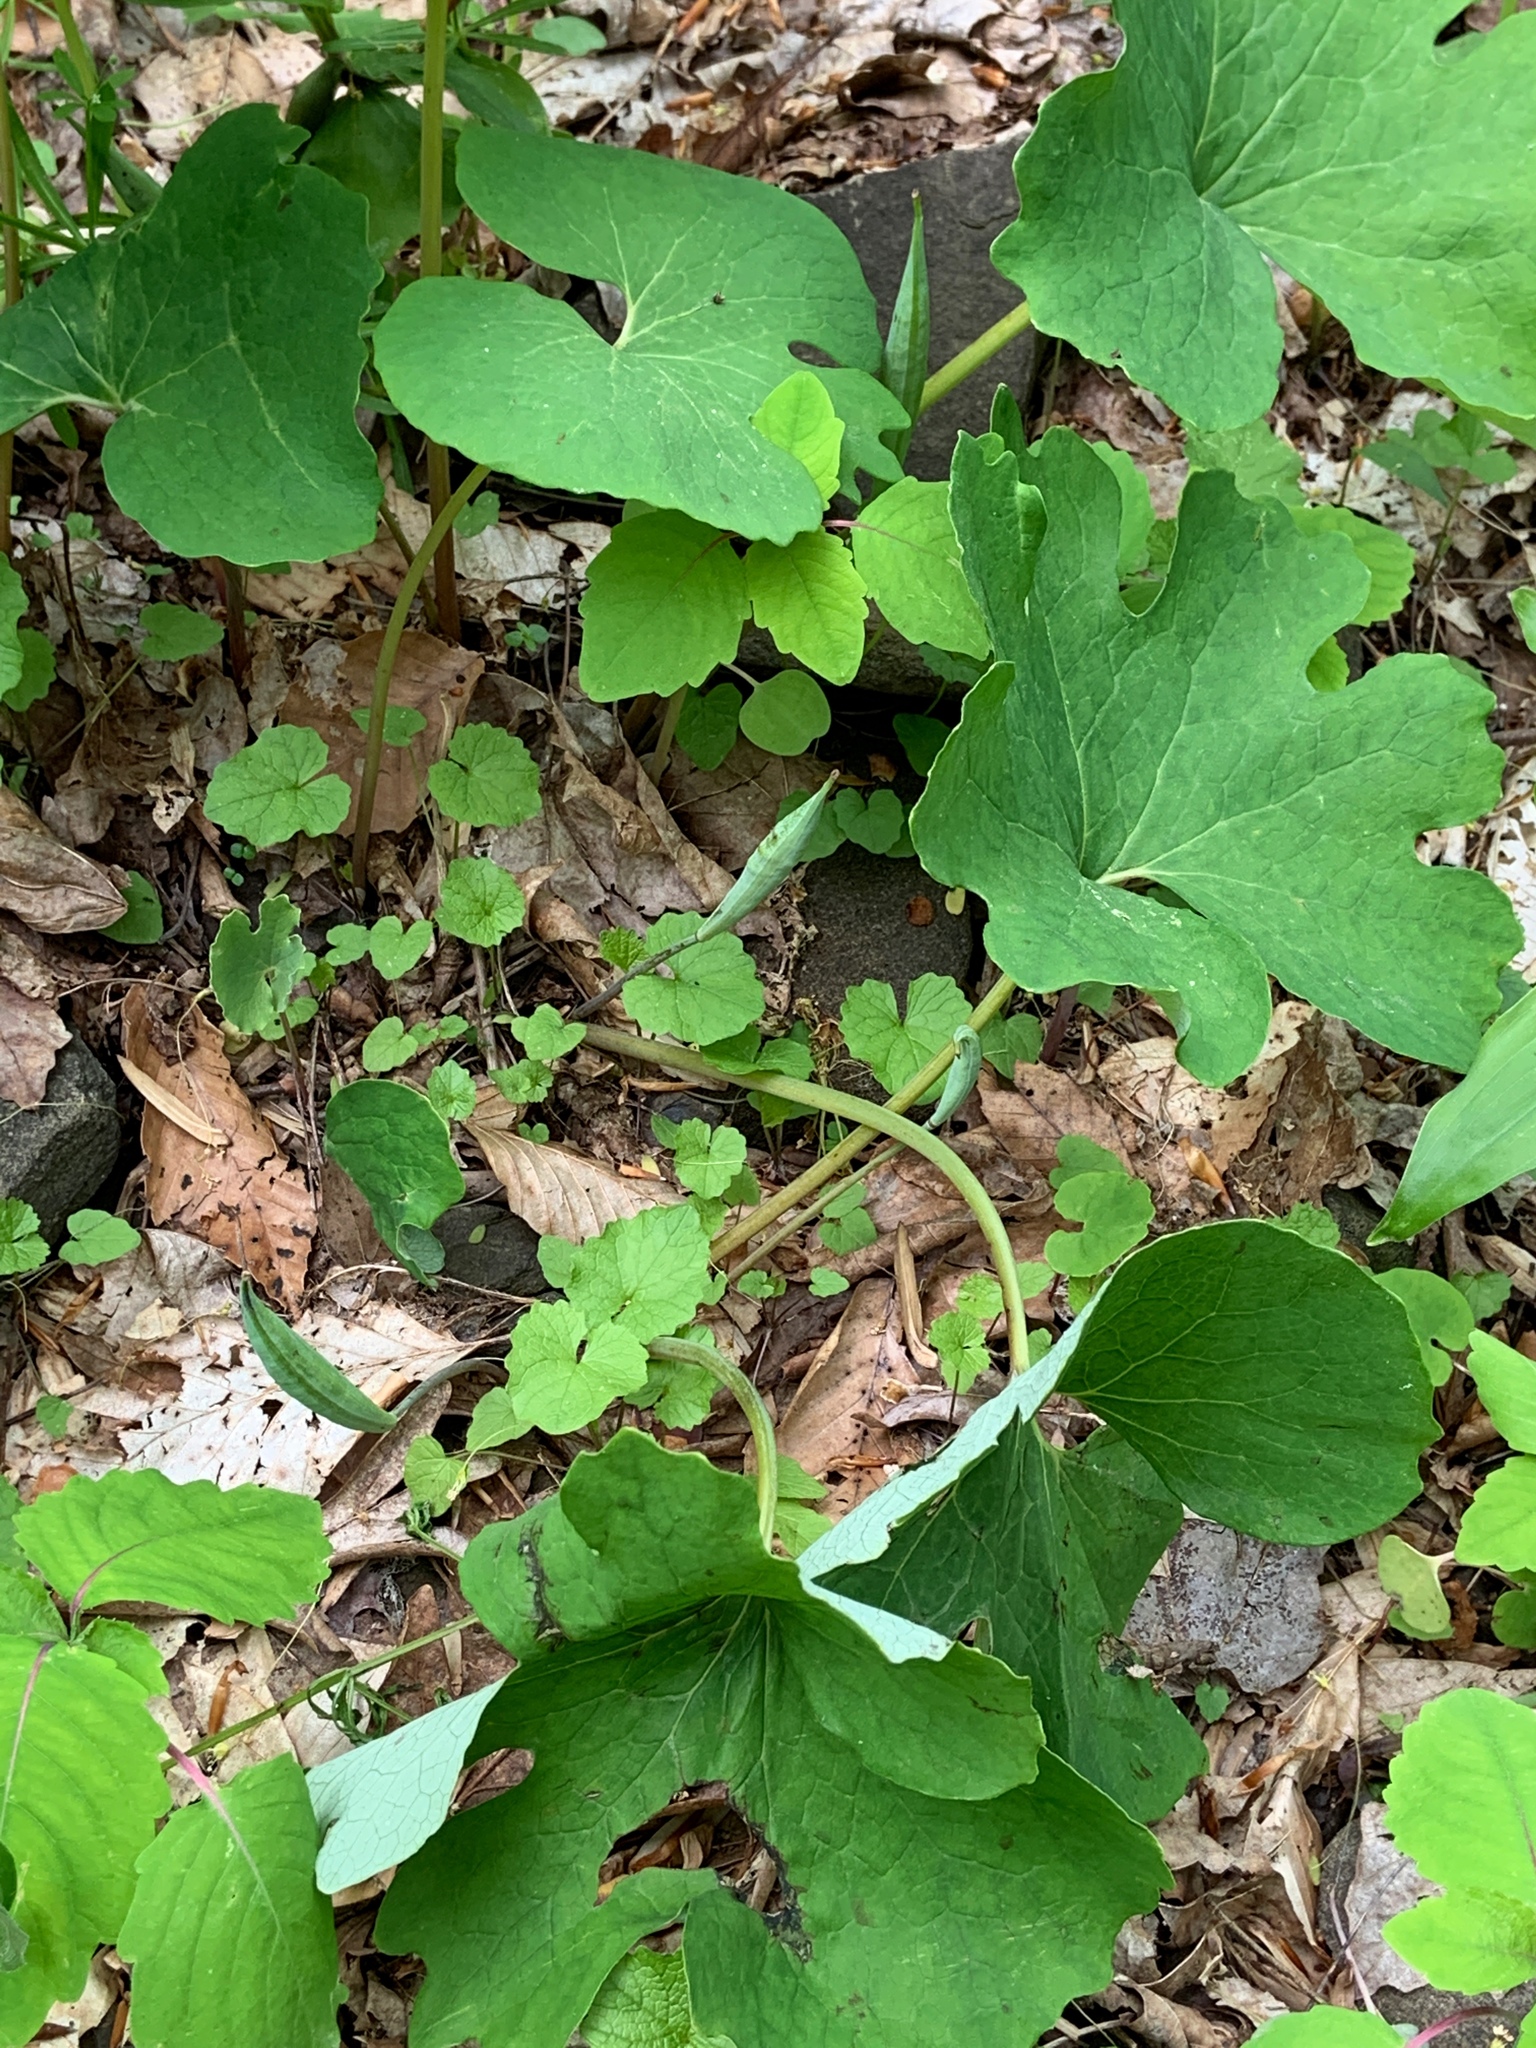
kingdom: Plantae
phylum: Tracheophyta
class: Magnoliopsida
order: Ranunculales
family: Papaveraceae
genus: Sanguinaria
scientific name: Sanguinaria canadensis
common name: Bloodroot
